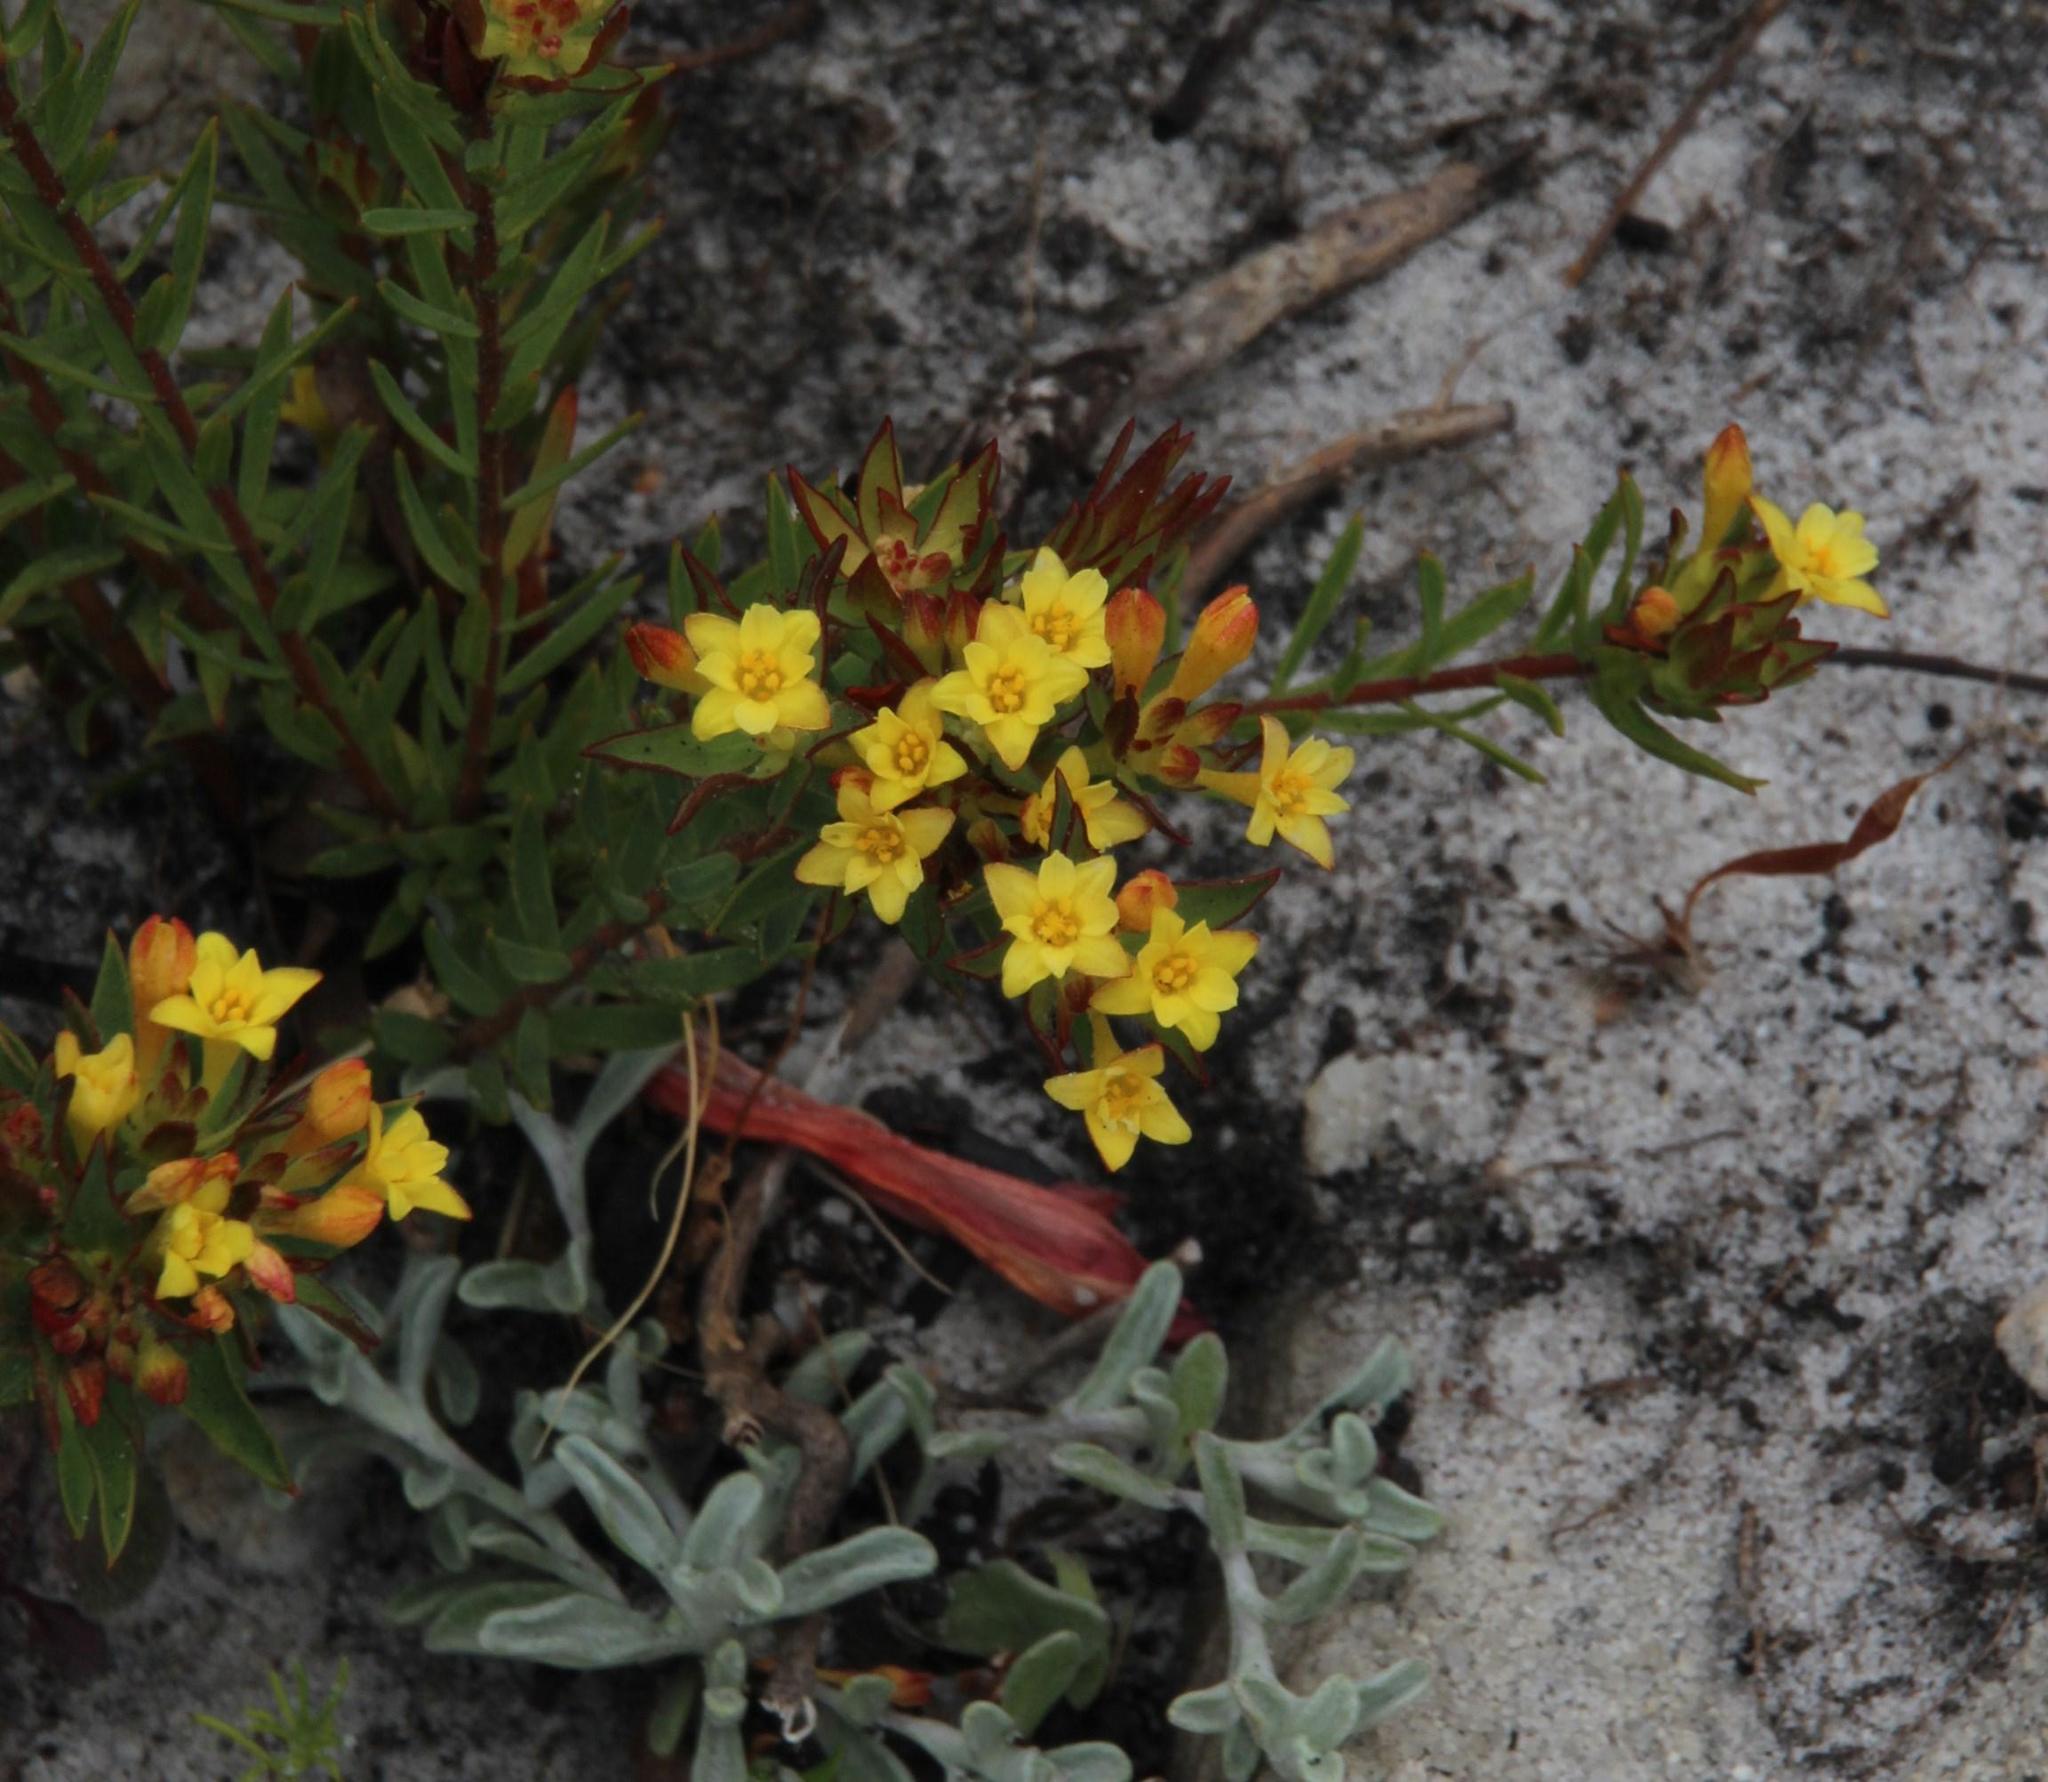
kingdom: Plantae
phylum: Tracheophyta
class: Magnoliopsida
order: Malvales
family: Thymelaeaceae
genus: Gnidia
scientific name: Gnidia juniperifolia
